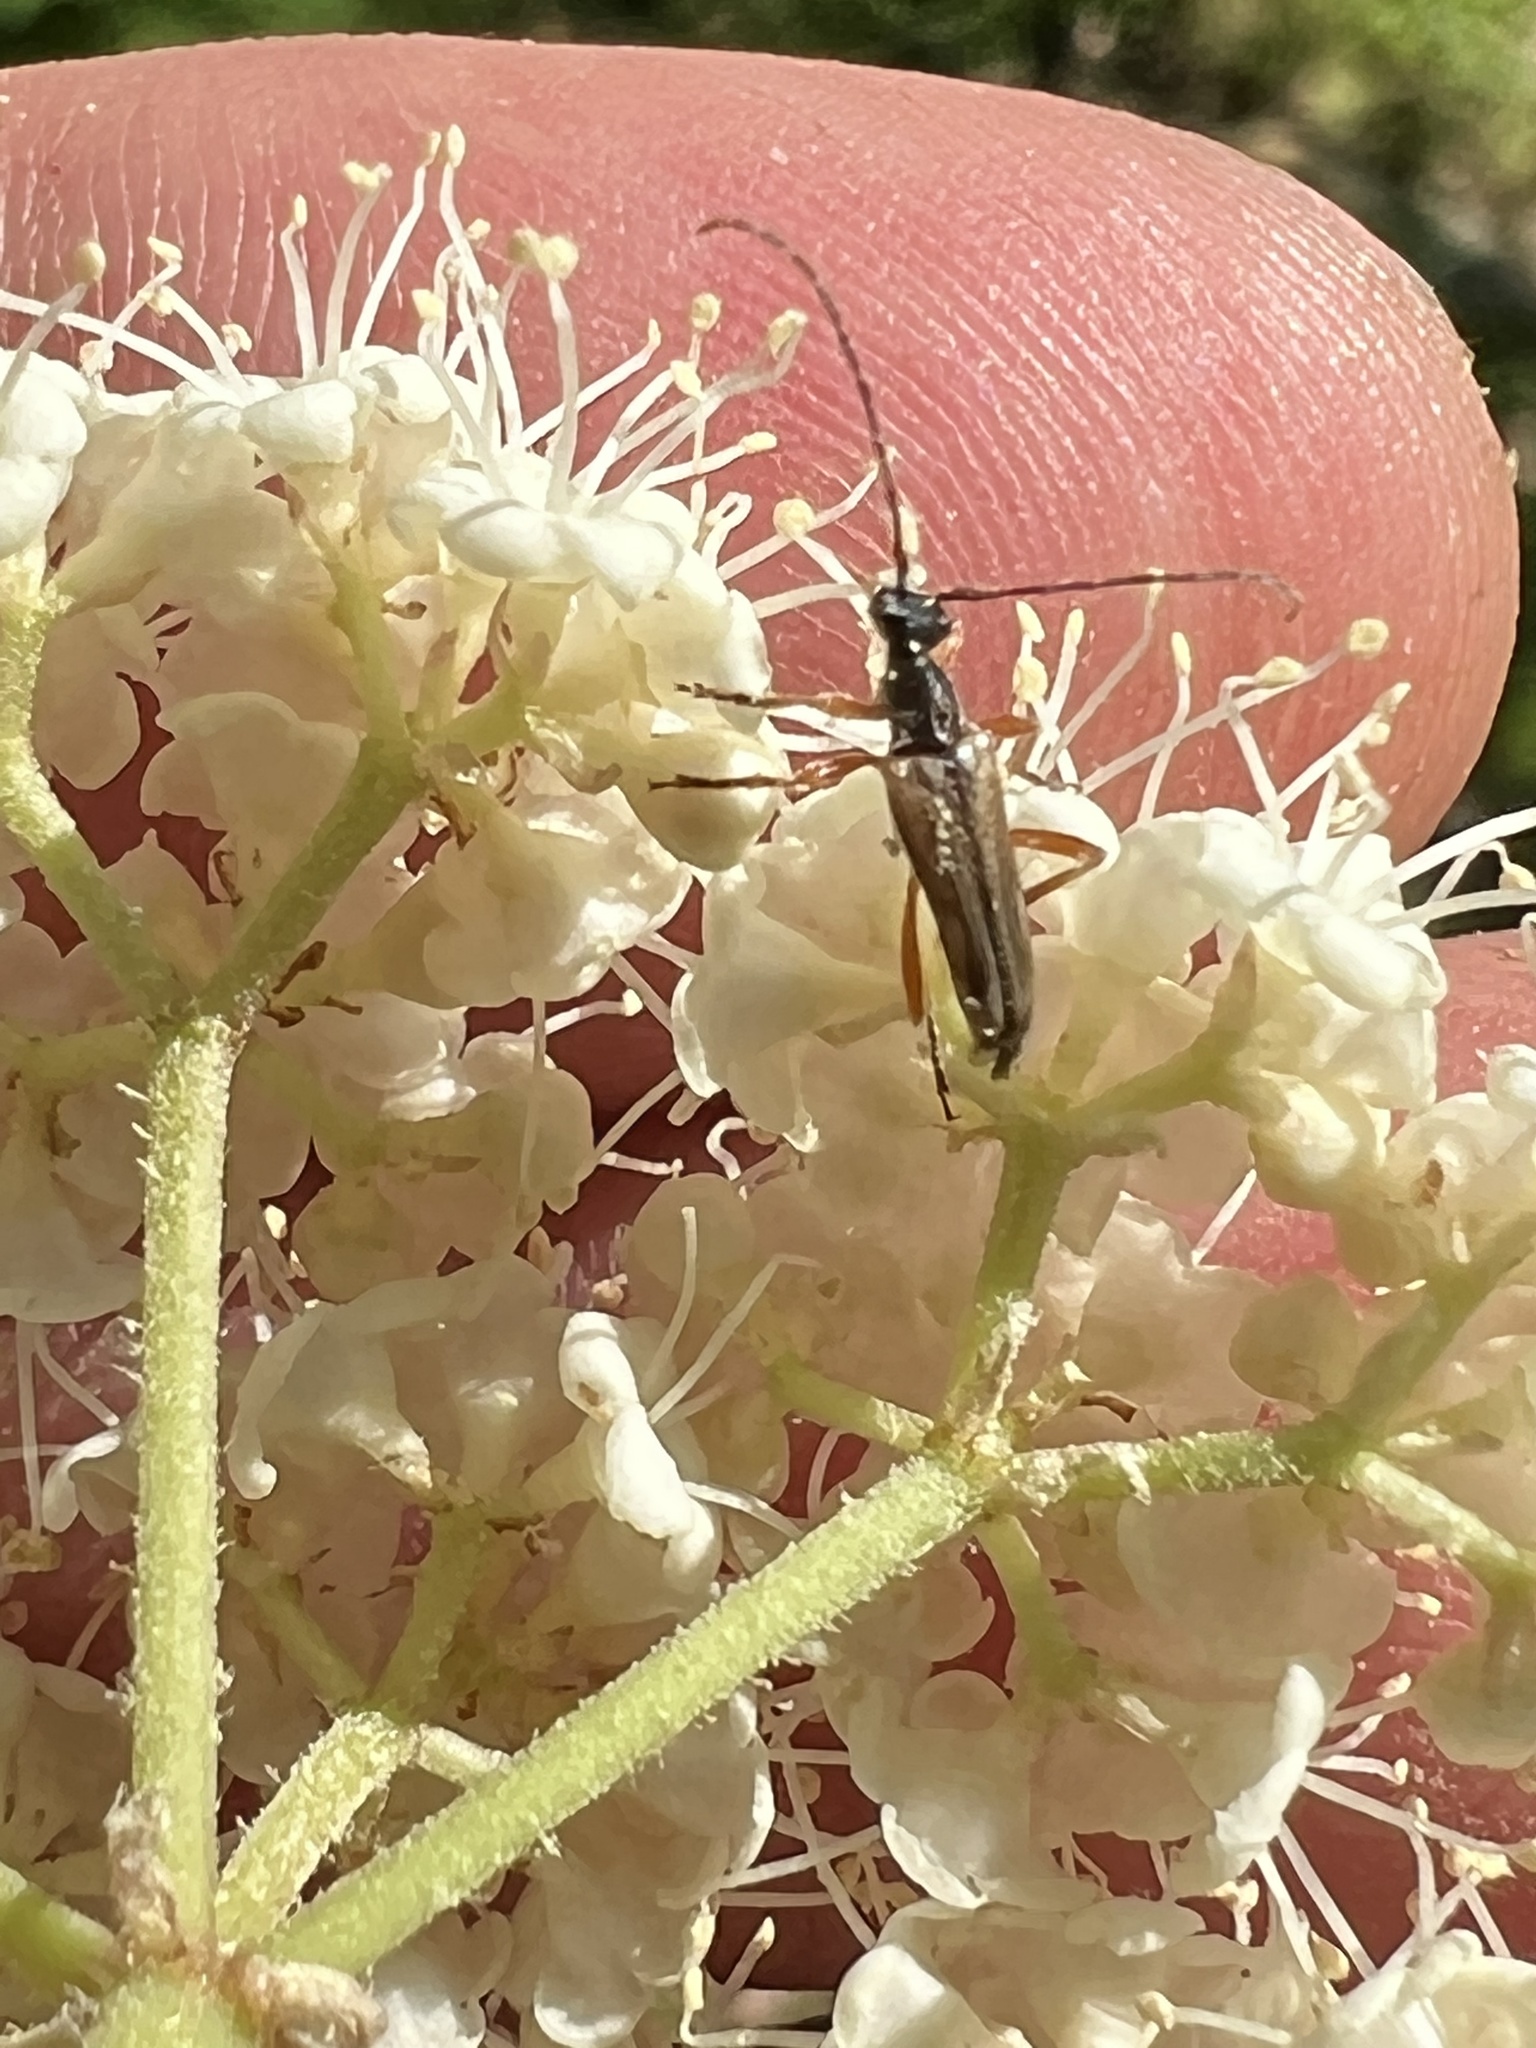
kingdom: Animalia
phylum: Arthropoda
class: Insecta
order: Coleoptera
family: Cerambycidae
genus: Analeptura
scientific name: Analeptura lineola
